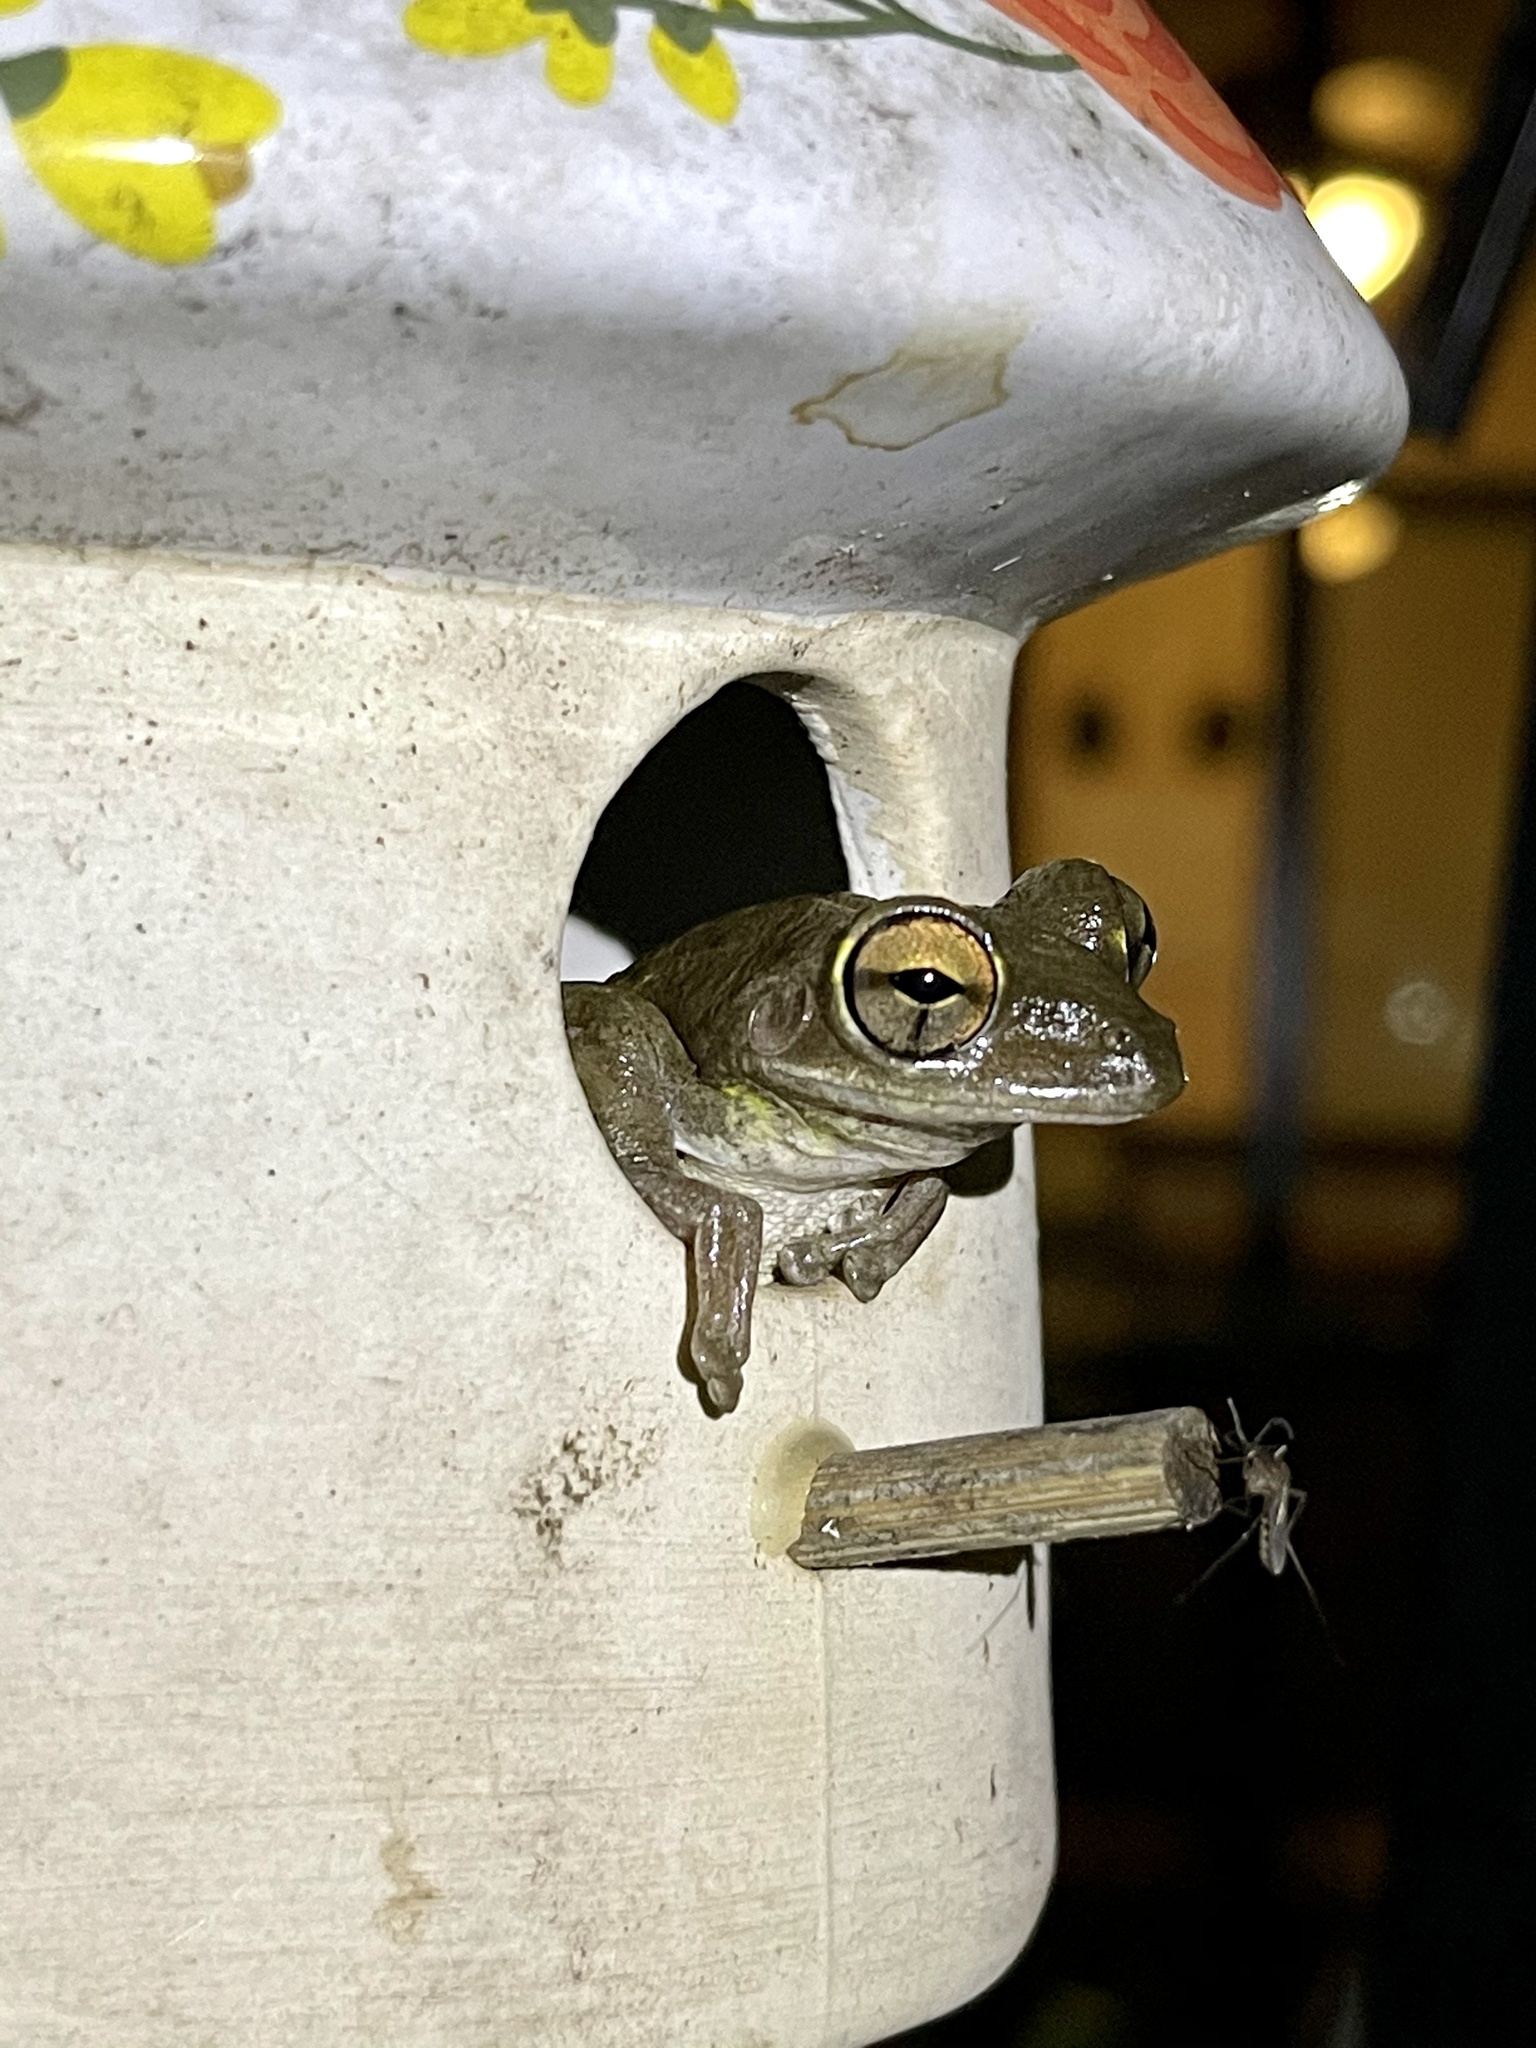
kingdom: Animalia
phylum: Chordata
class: Amphibia
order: Anura
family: Hylidae
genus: Osteopilus
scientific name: Osteopilus septentrionalis
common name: Cuban treefrog
